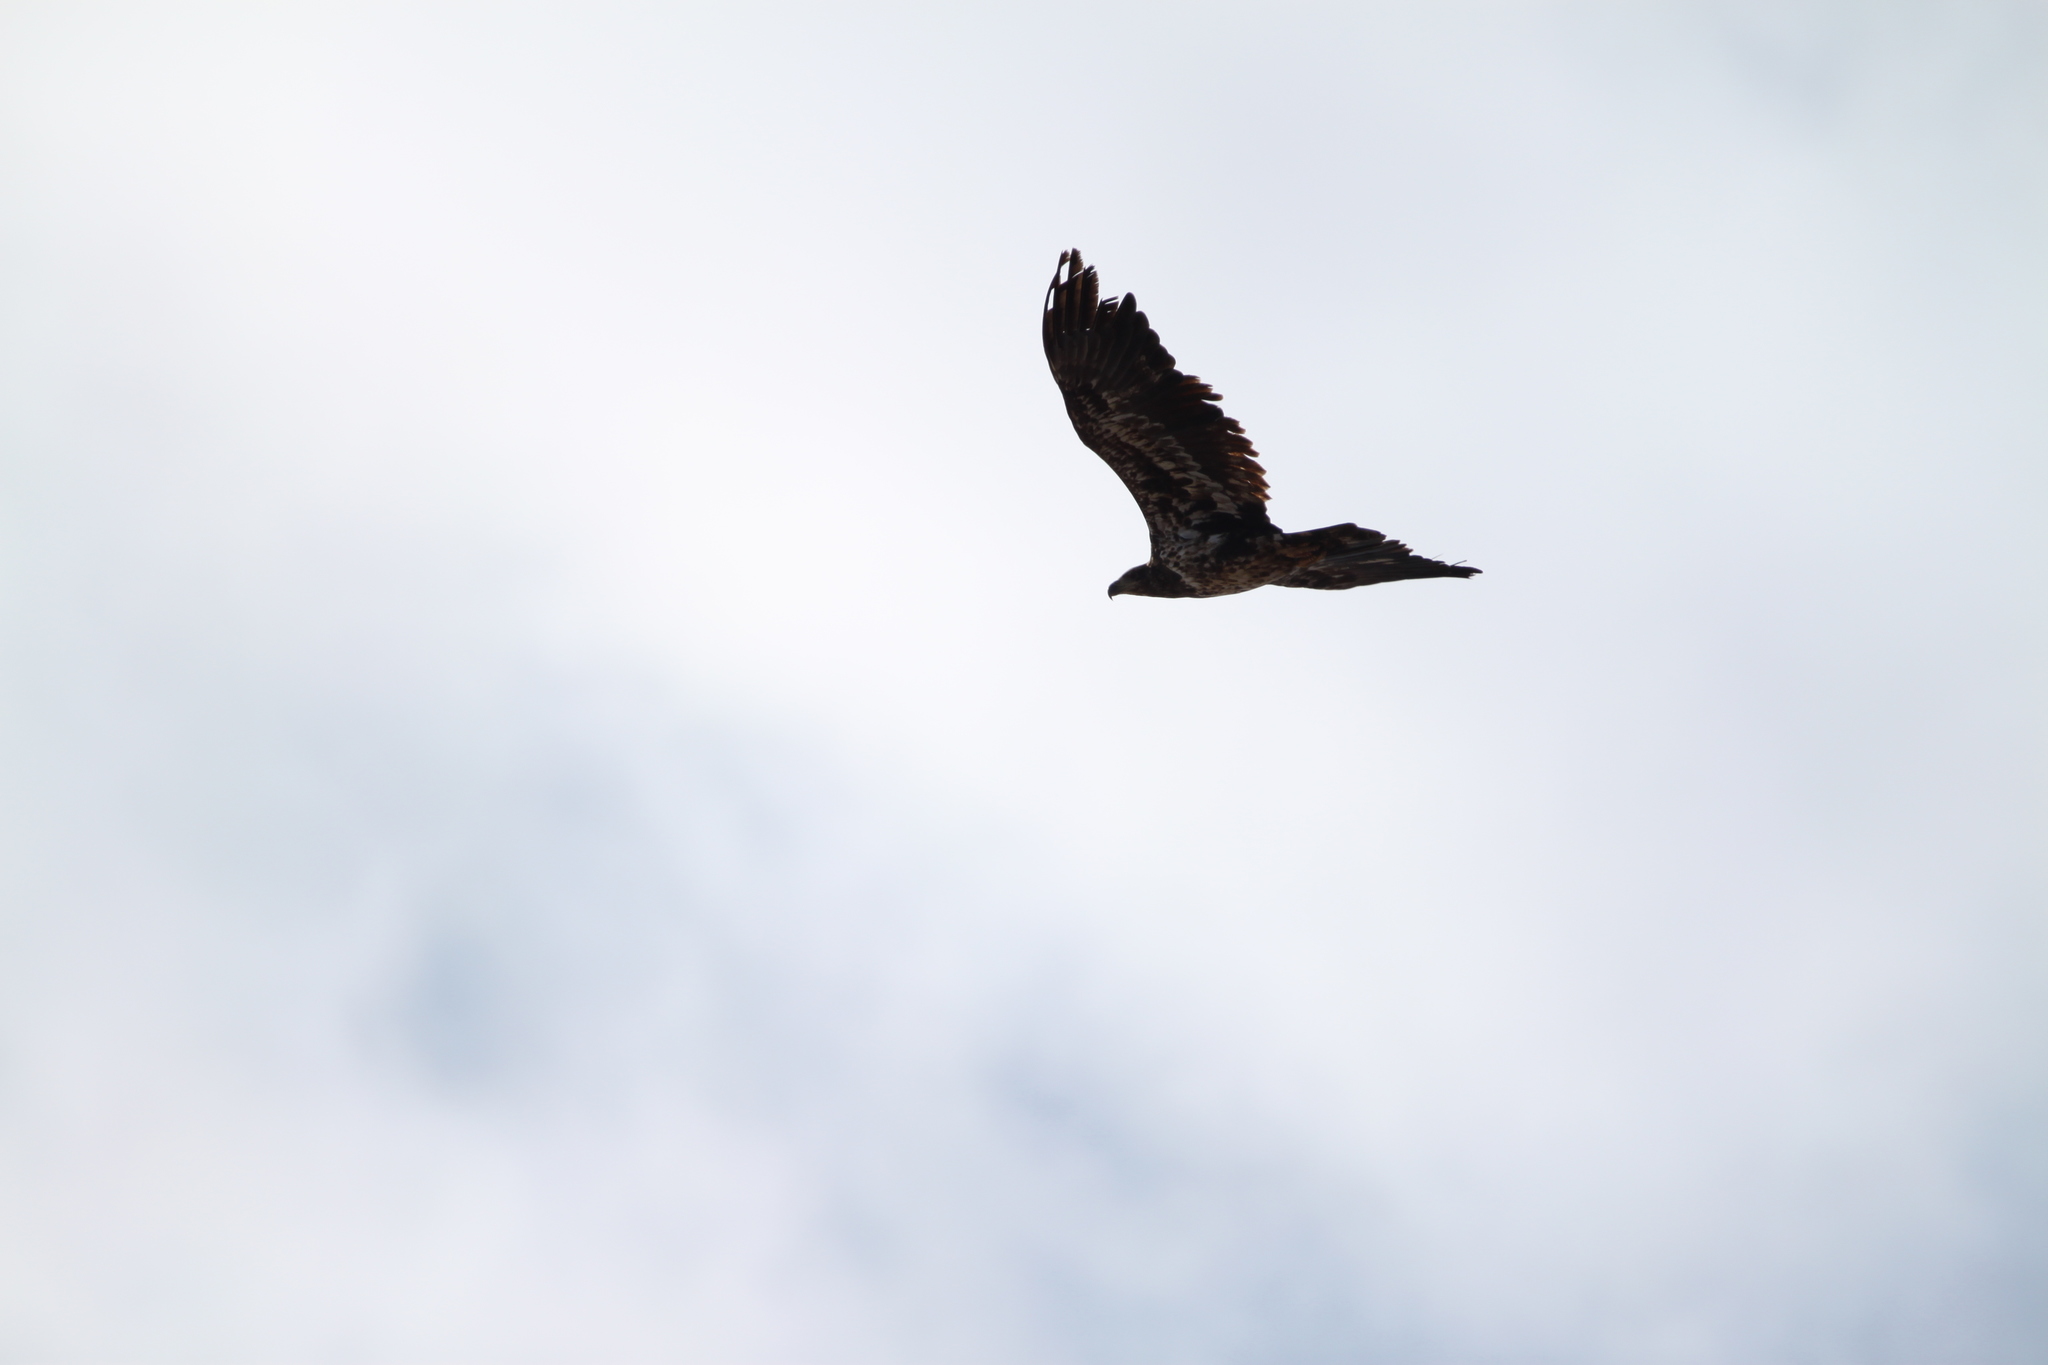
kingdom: Animalia
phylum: Chordata
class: Aves
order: Accipitriformes
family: Accipitridae
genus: Haliaeetus
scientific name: Haliaeetus leucocephalus
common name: Bald eagle
